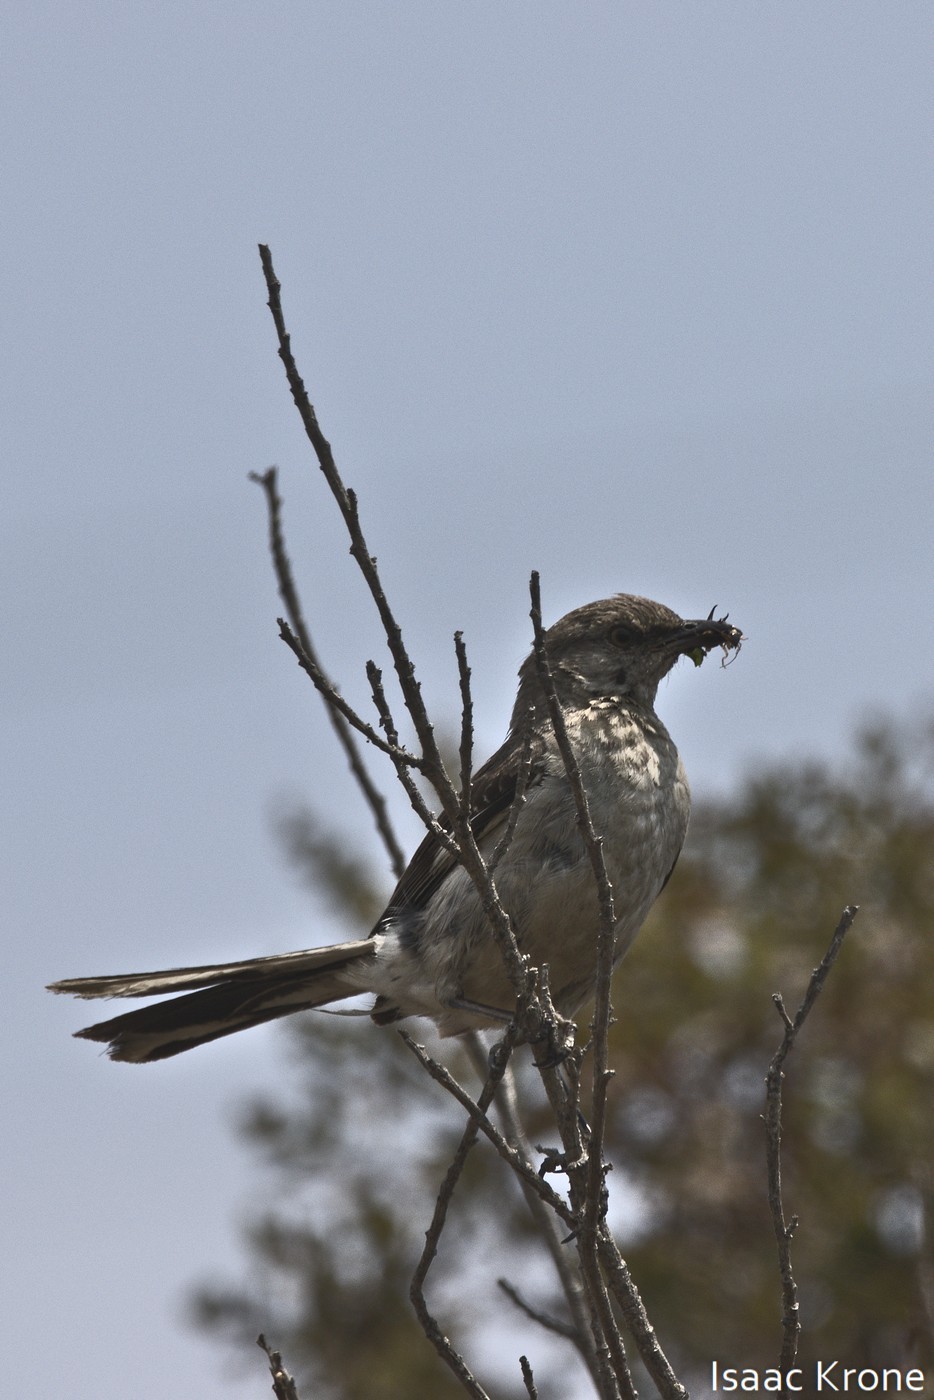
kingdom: Animalia
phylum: Chordata
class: Aves
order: Passeriformes
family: Mimidae
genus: Mimus
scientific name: Mimus polyglottos
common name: Northern mockingbird
